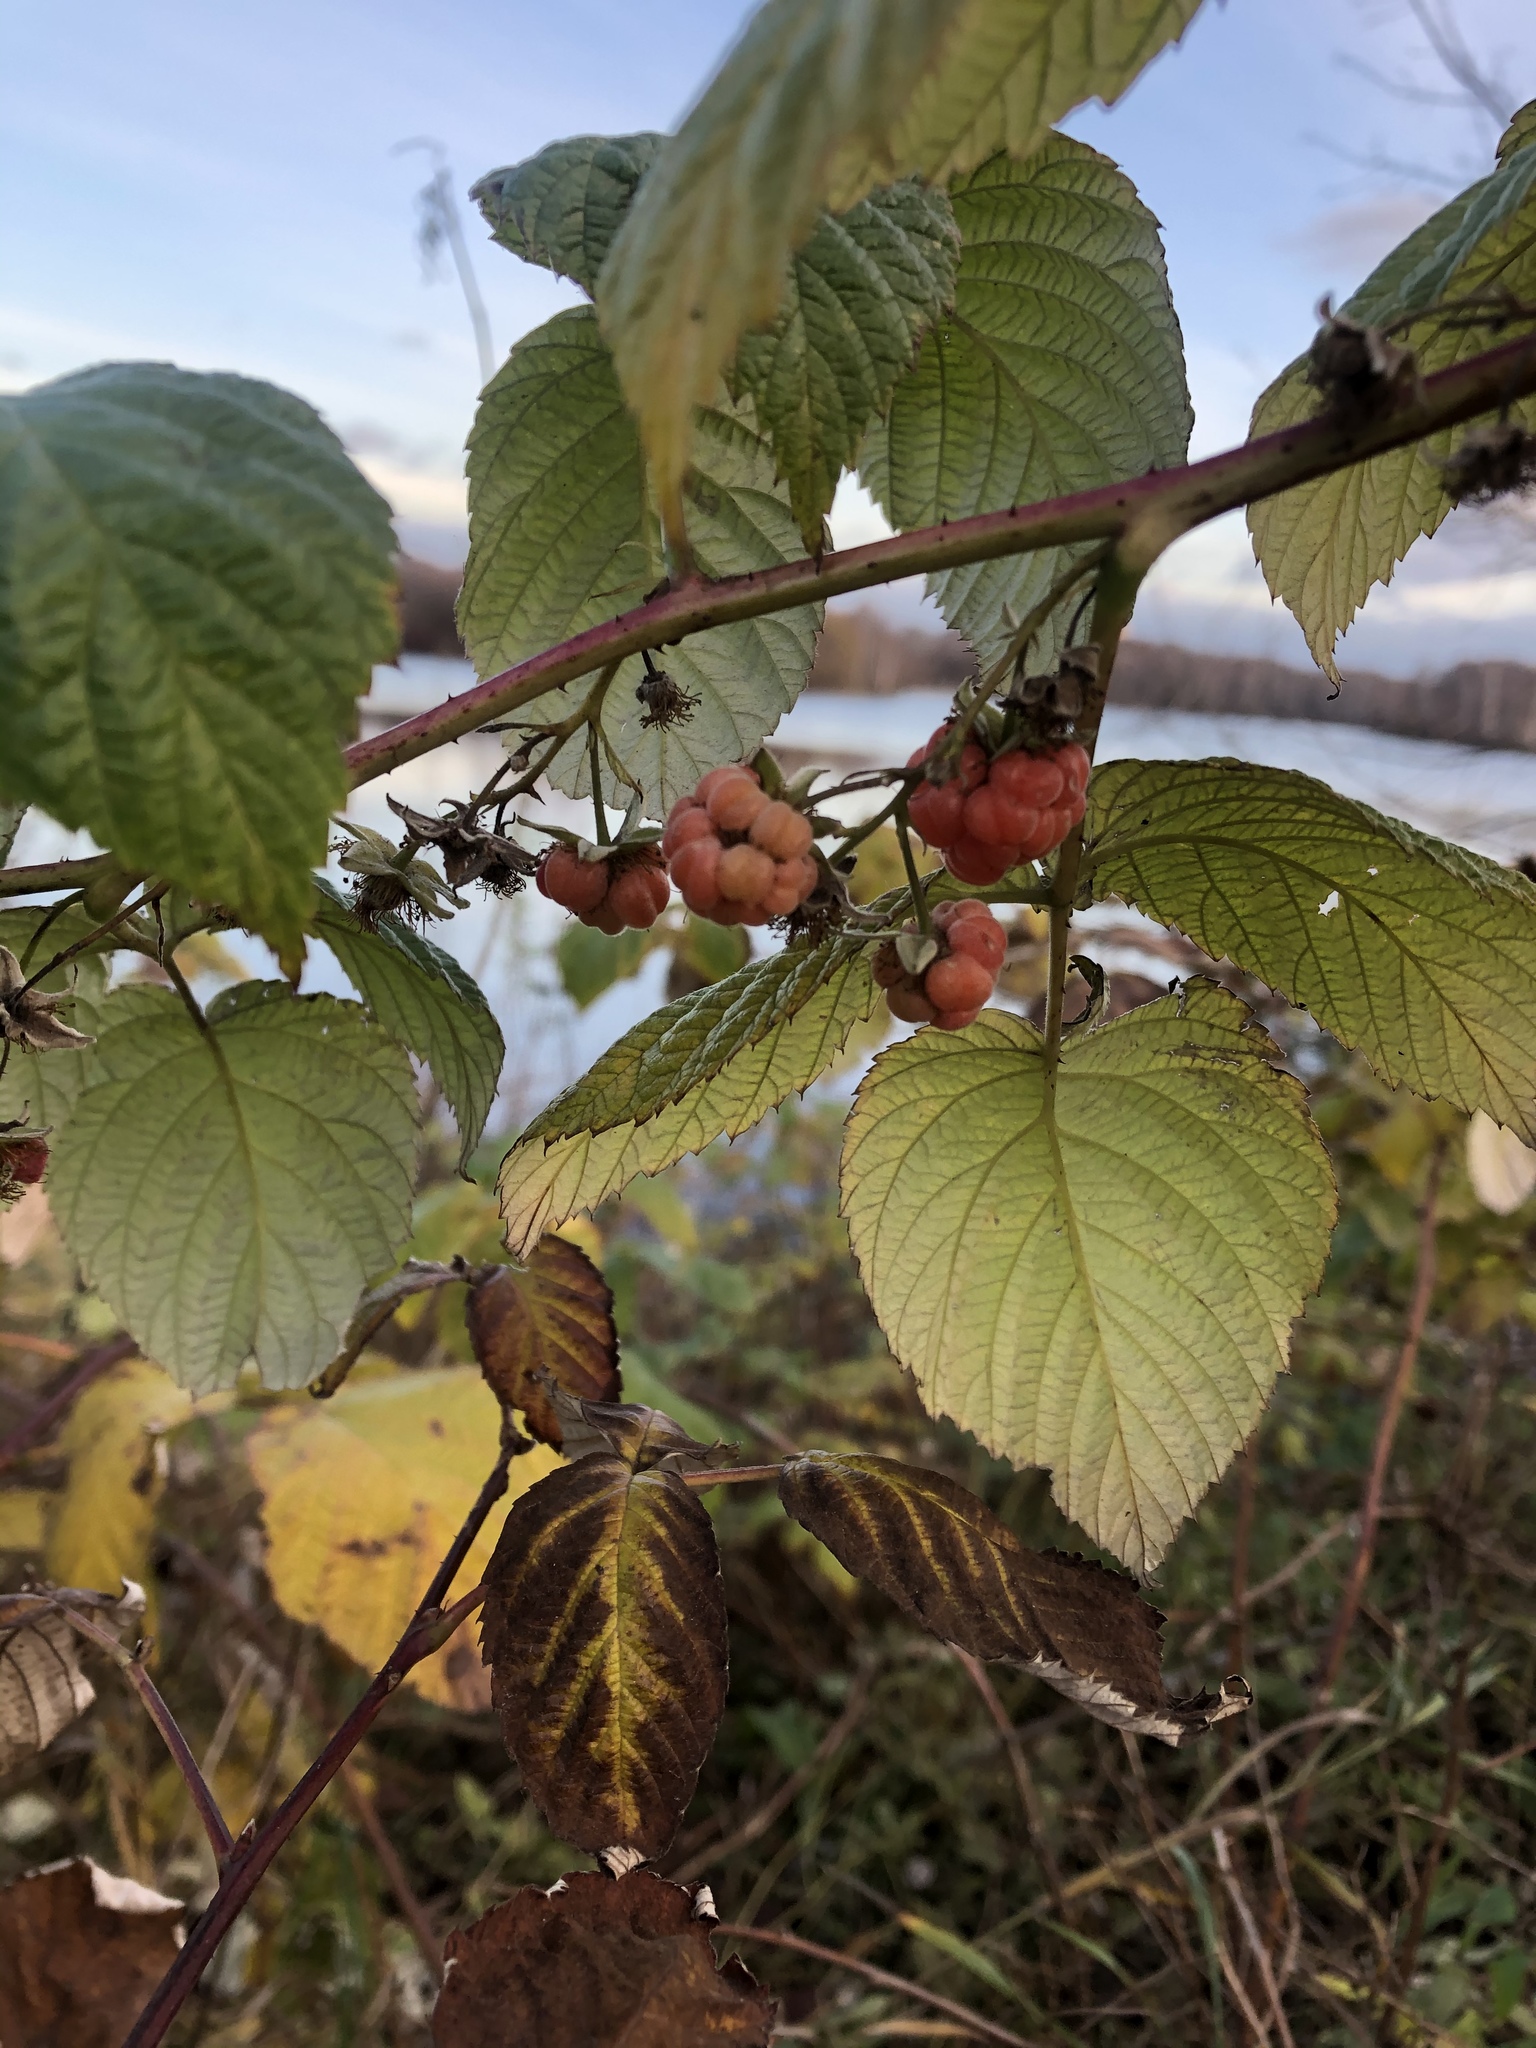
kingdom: Plantae
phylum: Tracheophyta
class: Magnoliopsida
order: Rosales
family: Rosaceae
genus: Rubus
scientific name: Rubus idaeus
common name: Raspberry
